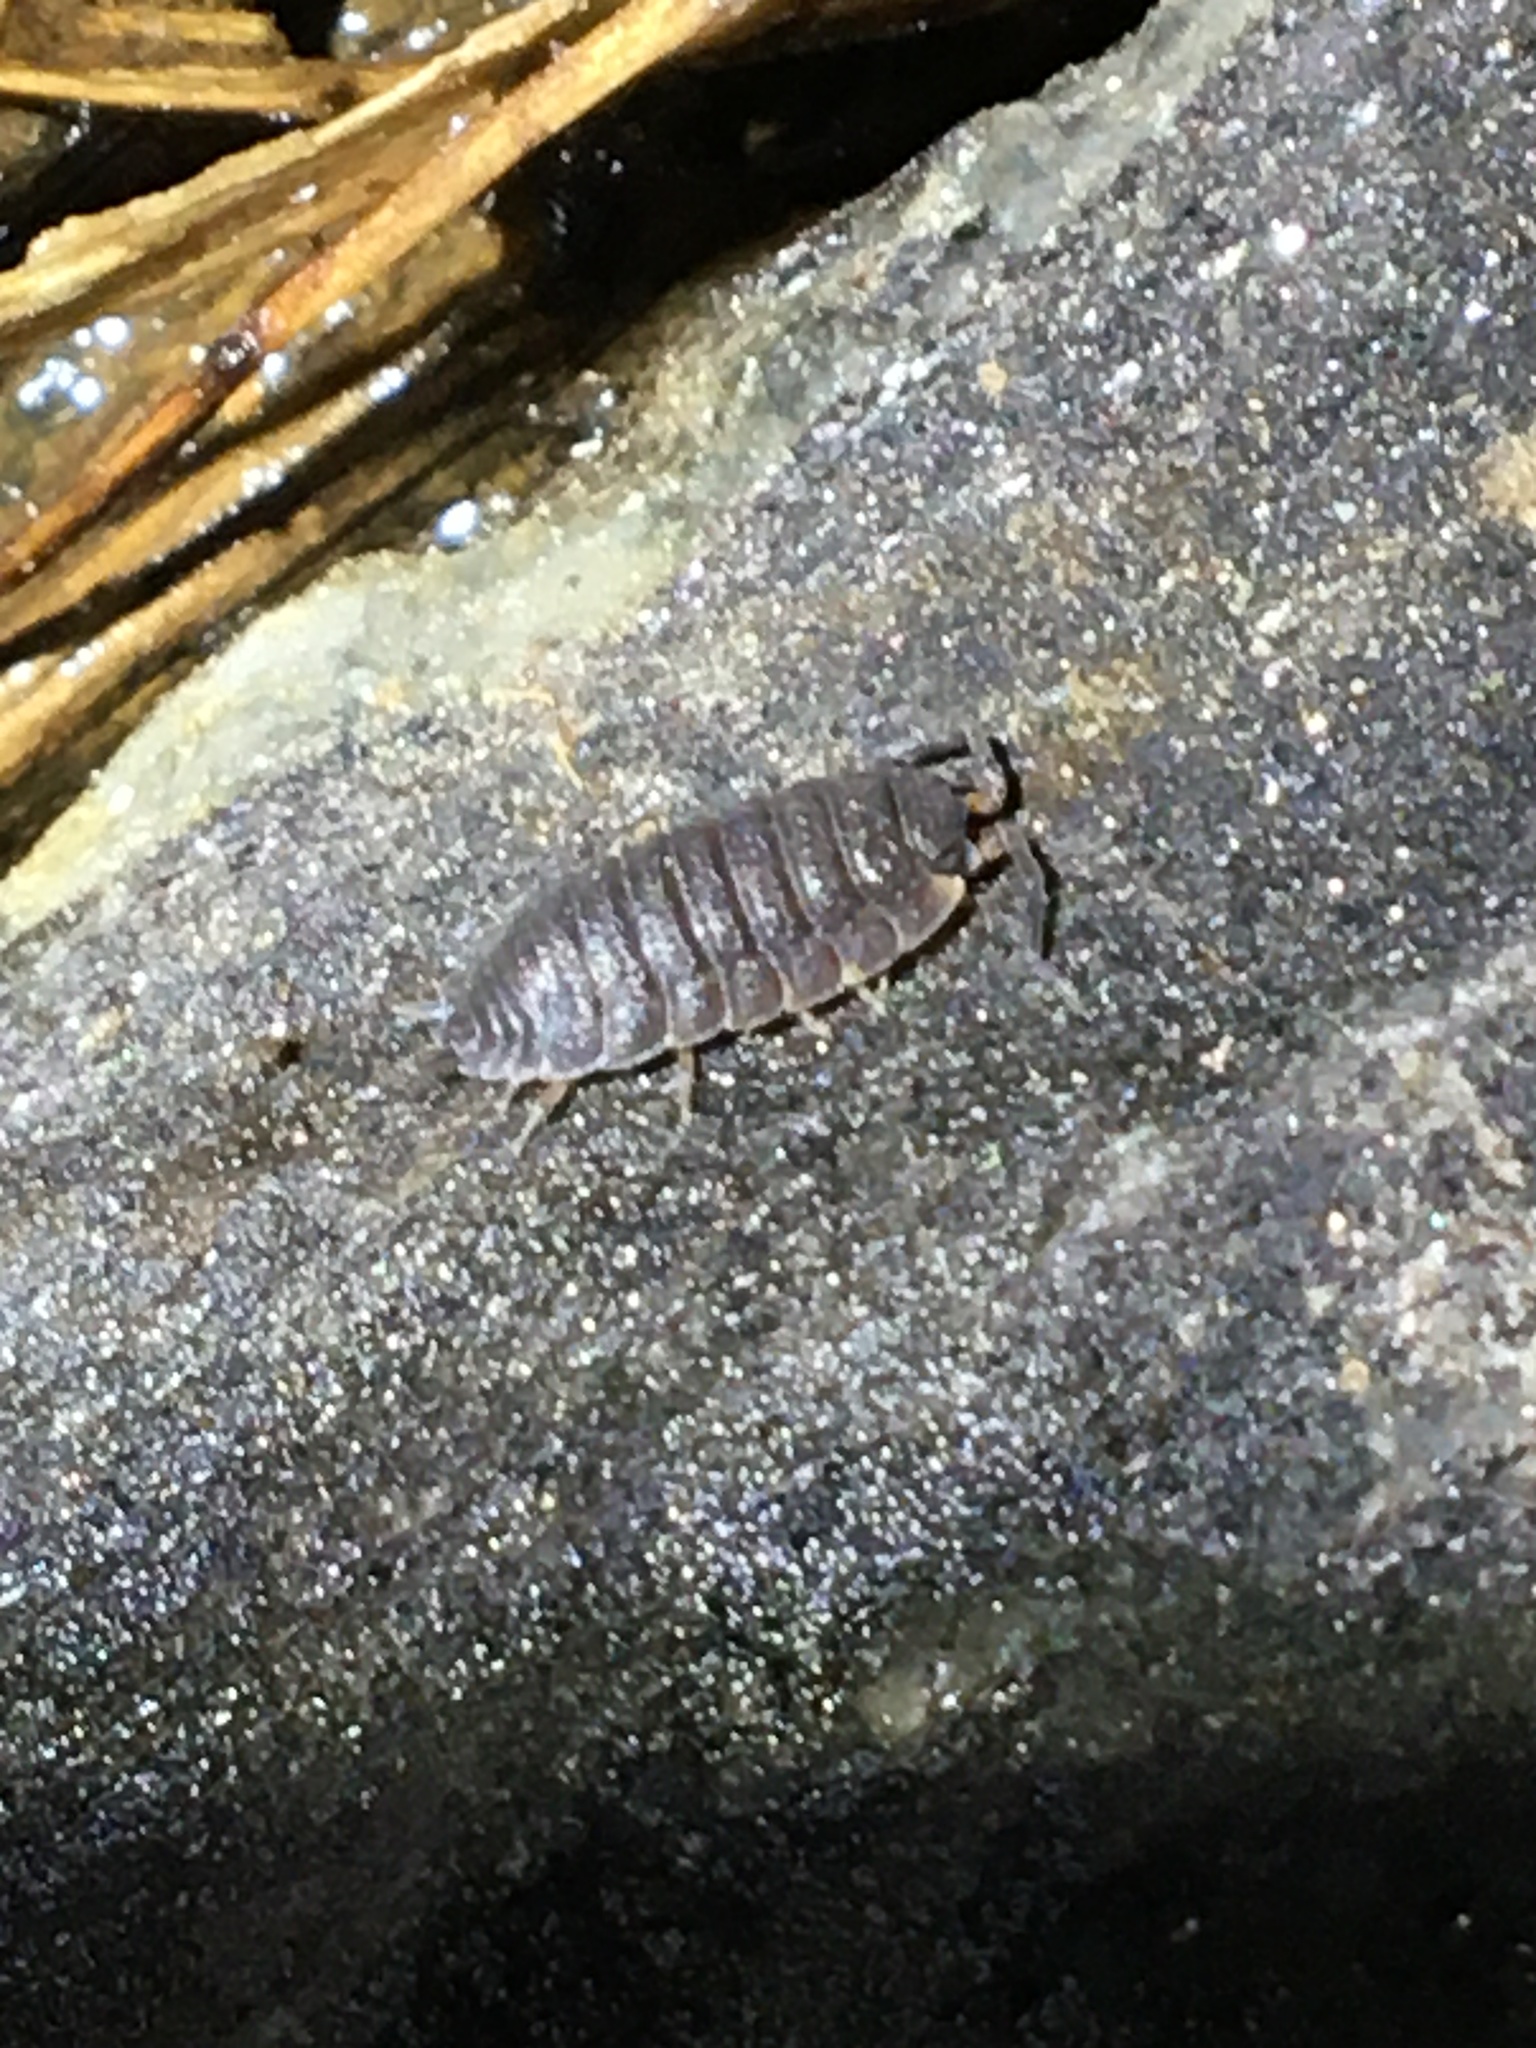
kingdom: Animalia
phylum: Arthropoda
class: Malacostraca
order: Isopoda
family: Porcellionidae
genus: Porcellio
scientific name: Porcellio scaber
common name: Common rough woodlouse
